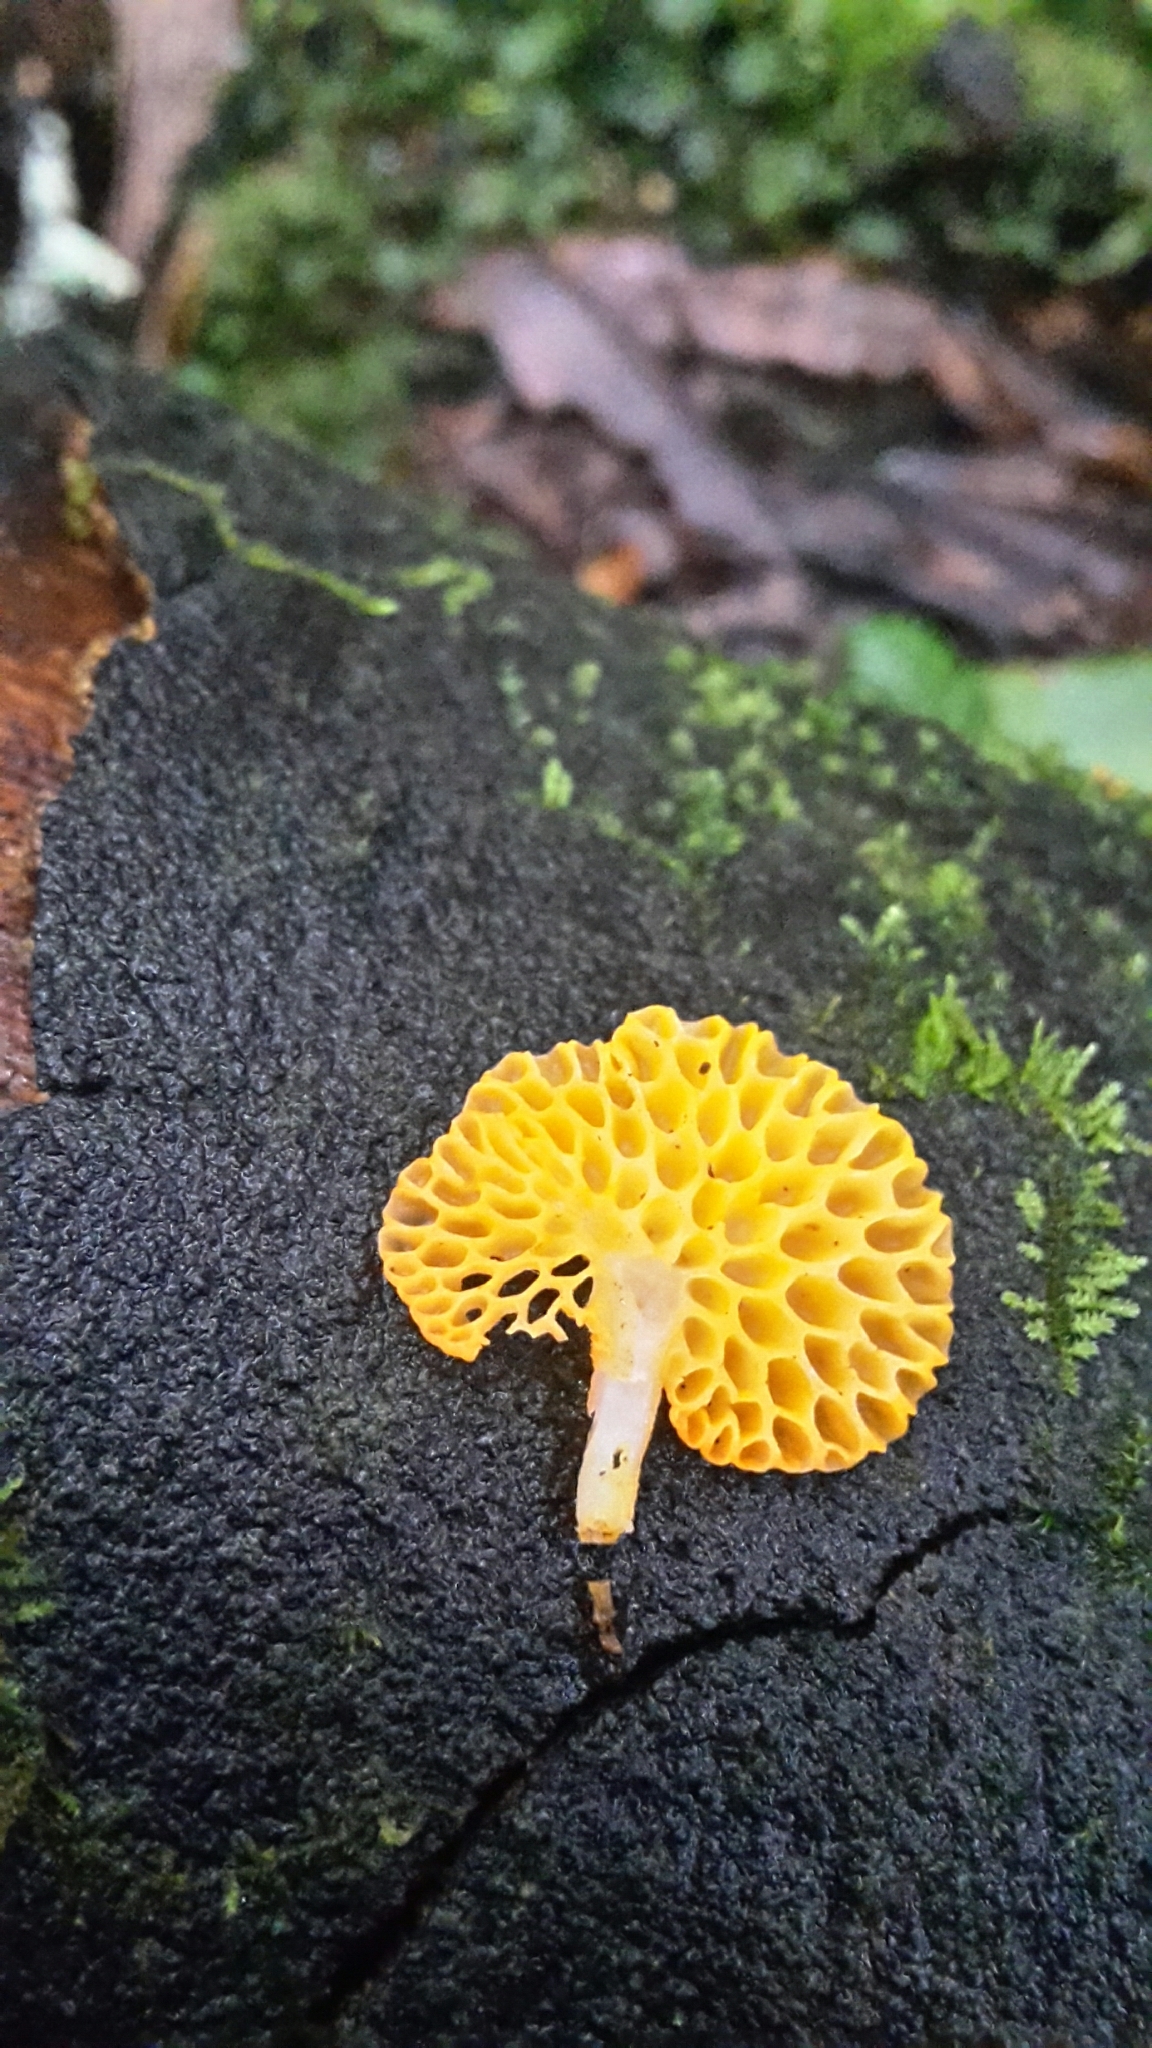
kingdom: Fungi
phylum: Basidiomycota
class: Agaricomycetes
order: Agaricales
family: Mycenaceae
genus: Favolaschia
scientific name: Favolaschia claudopus
